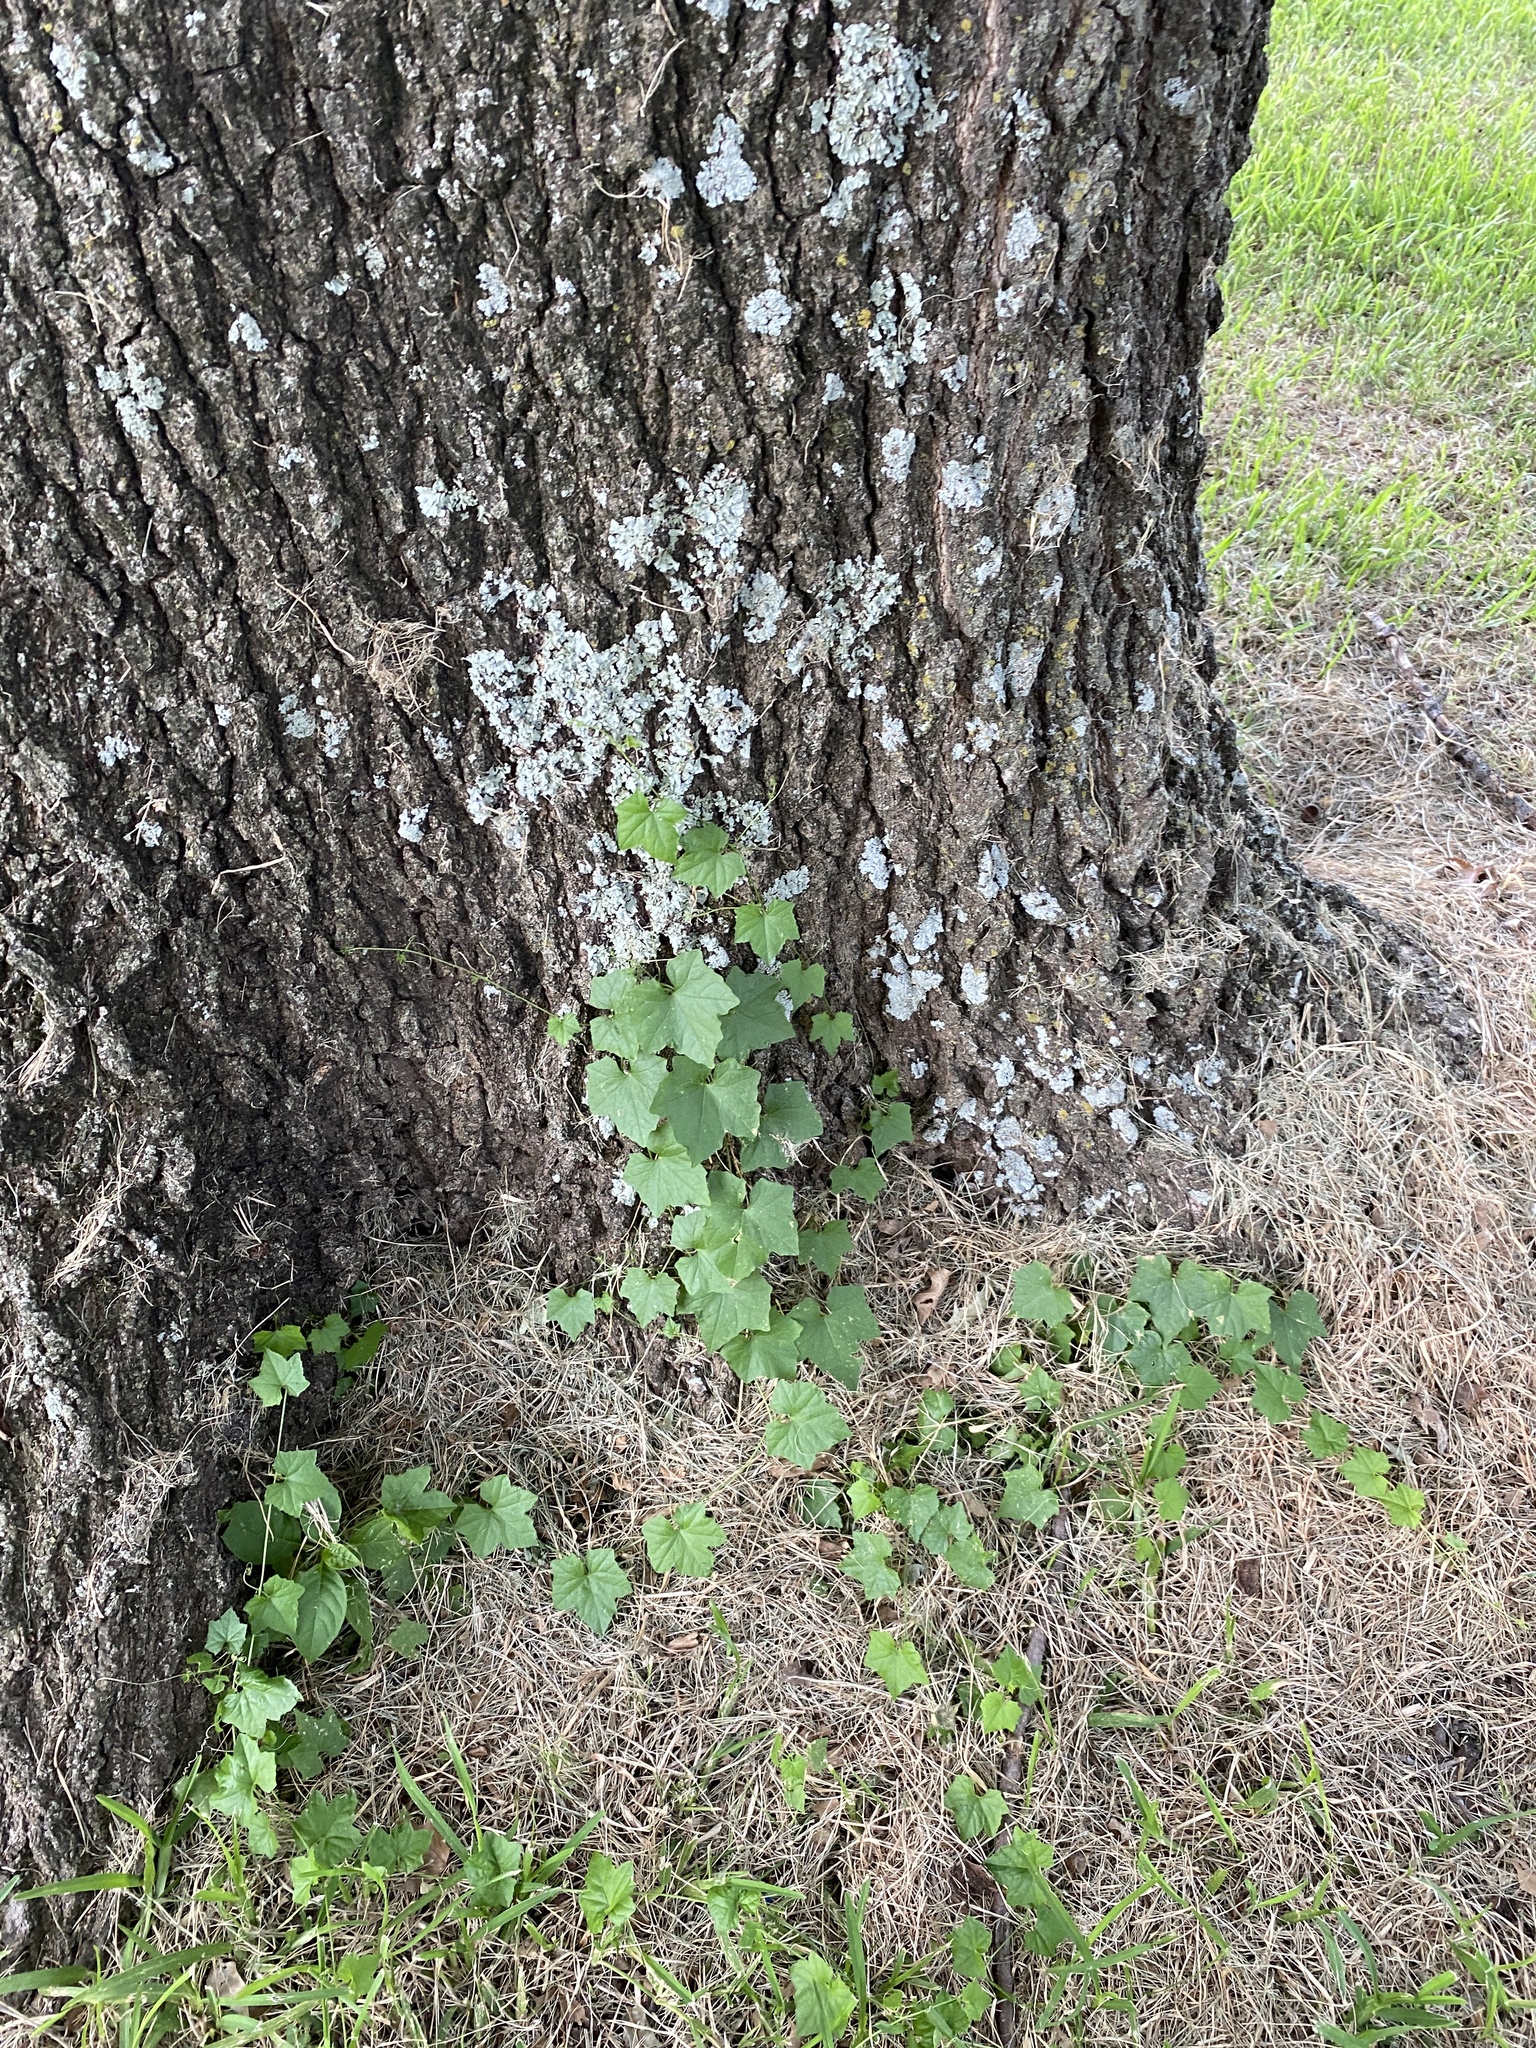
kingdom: Plantae
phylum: Tracheophyta
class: Magnoliopsida
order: Cucurbitales
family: Cucurbitaceae
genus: Melothria
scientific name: Melothria pendula
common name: Creeping-cucumber
